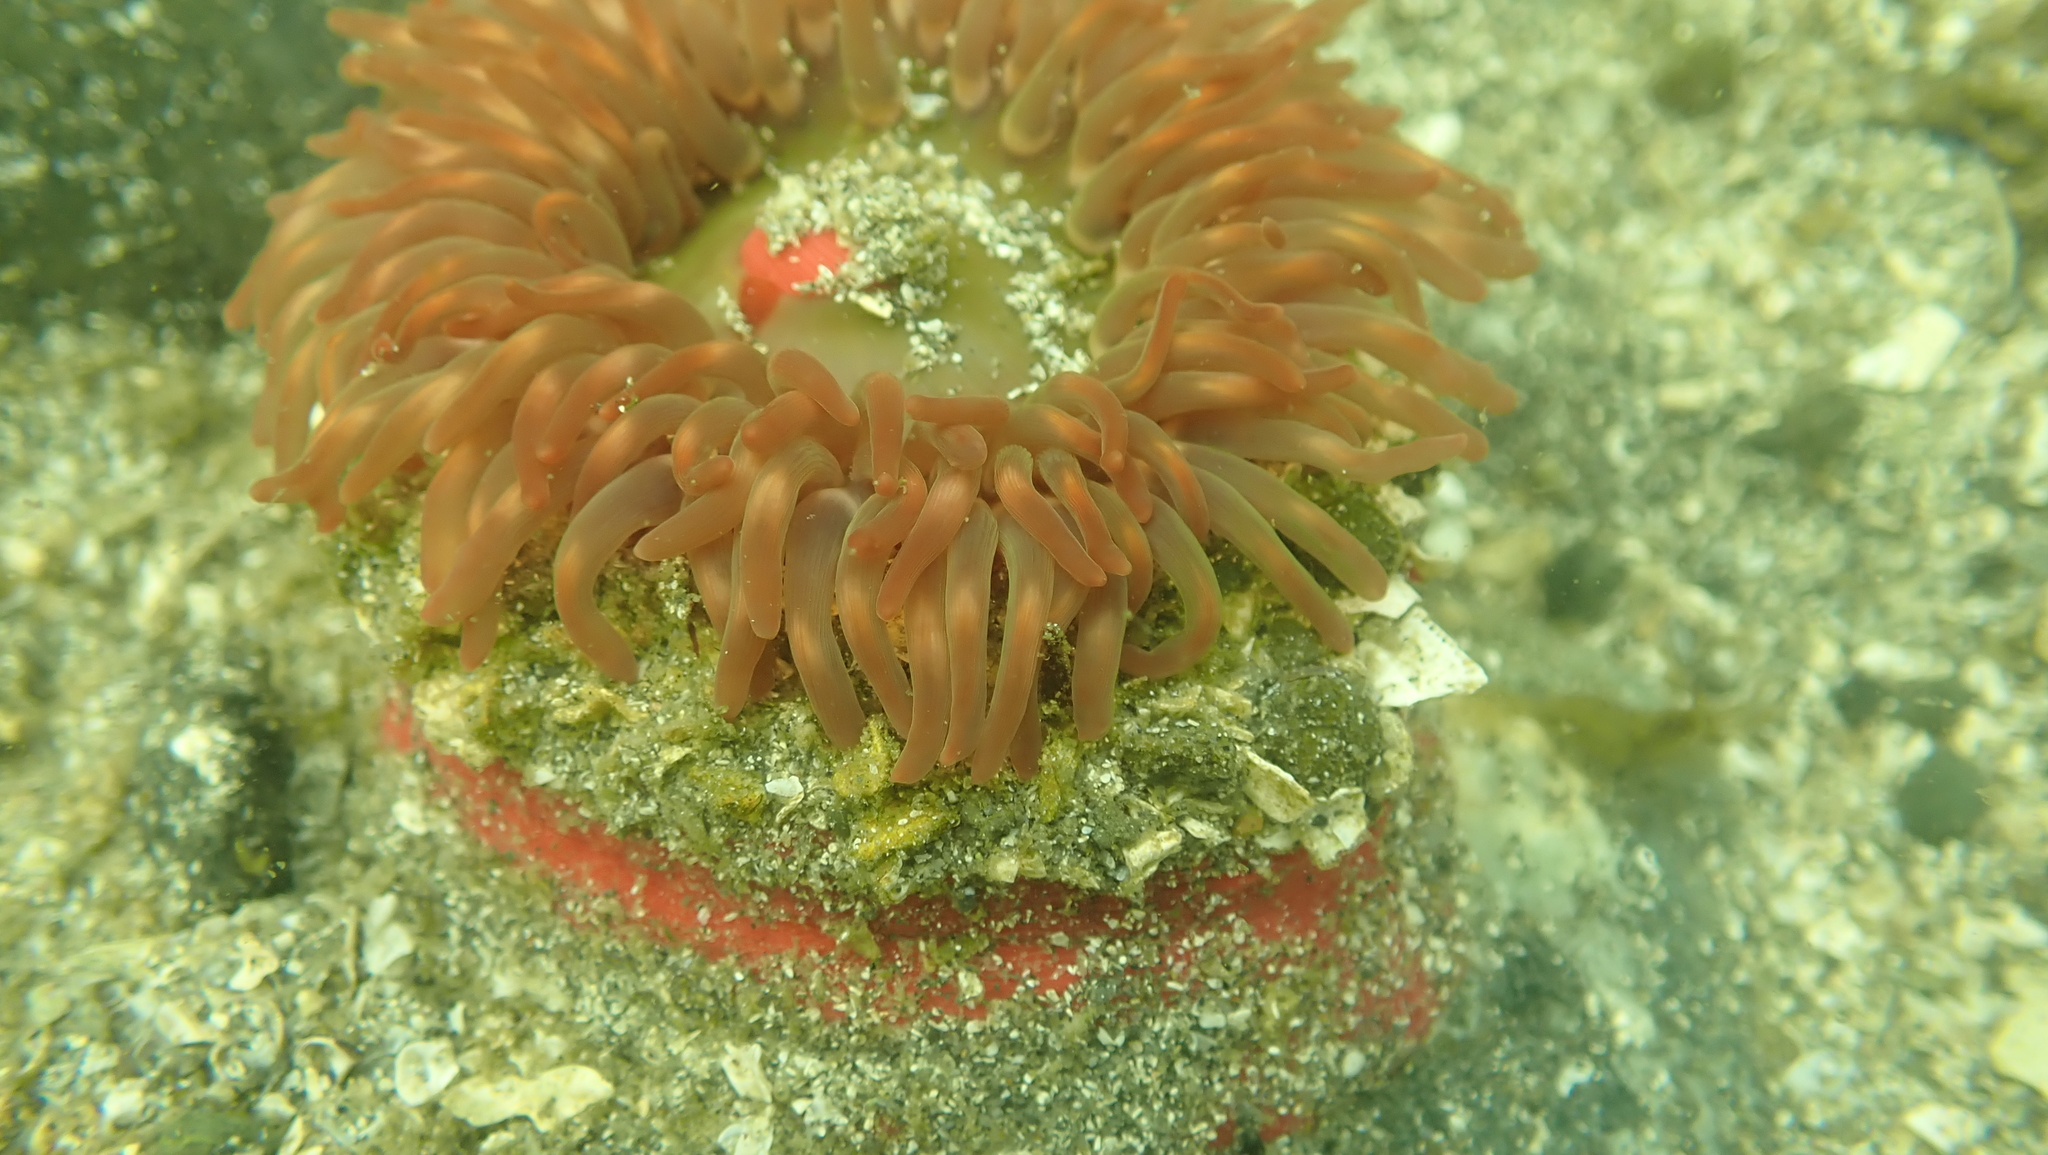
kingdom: Animalia
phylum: Cnidaria
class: Anthozoa
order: Actiniaria
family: Actiniidae
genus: Urticina
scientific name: Urticina clandestina
